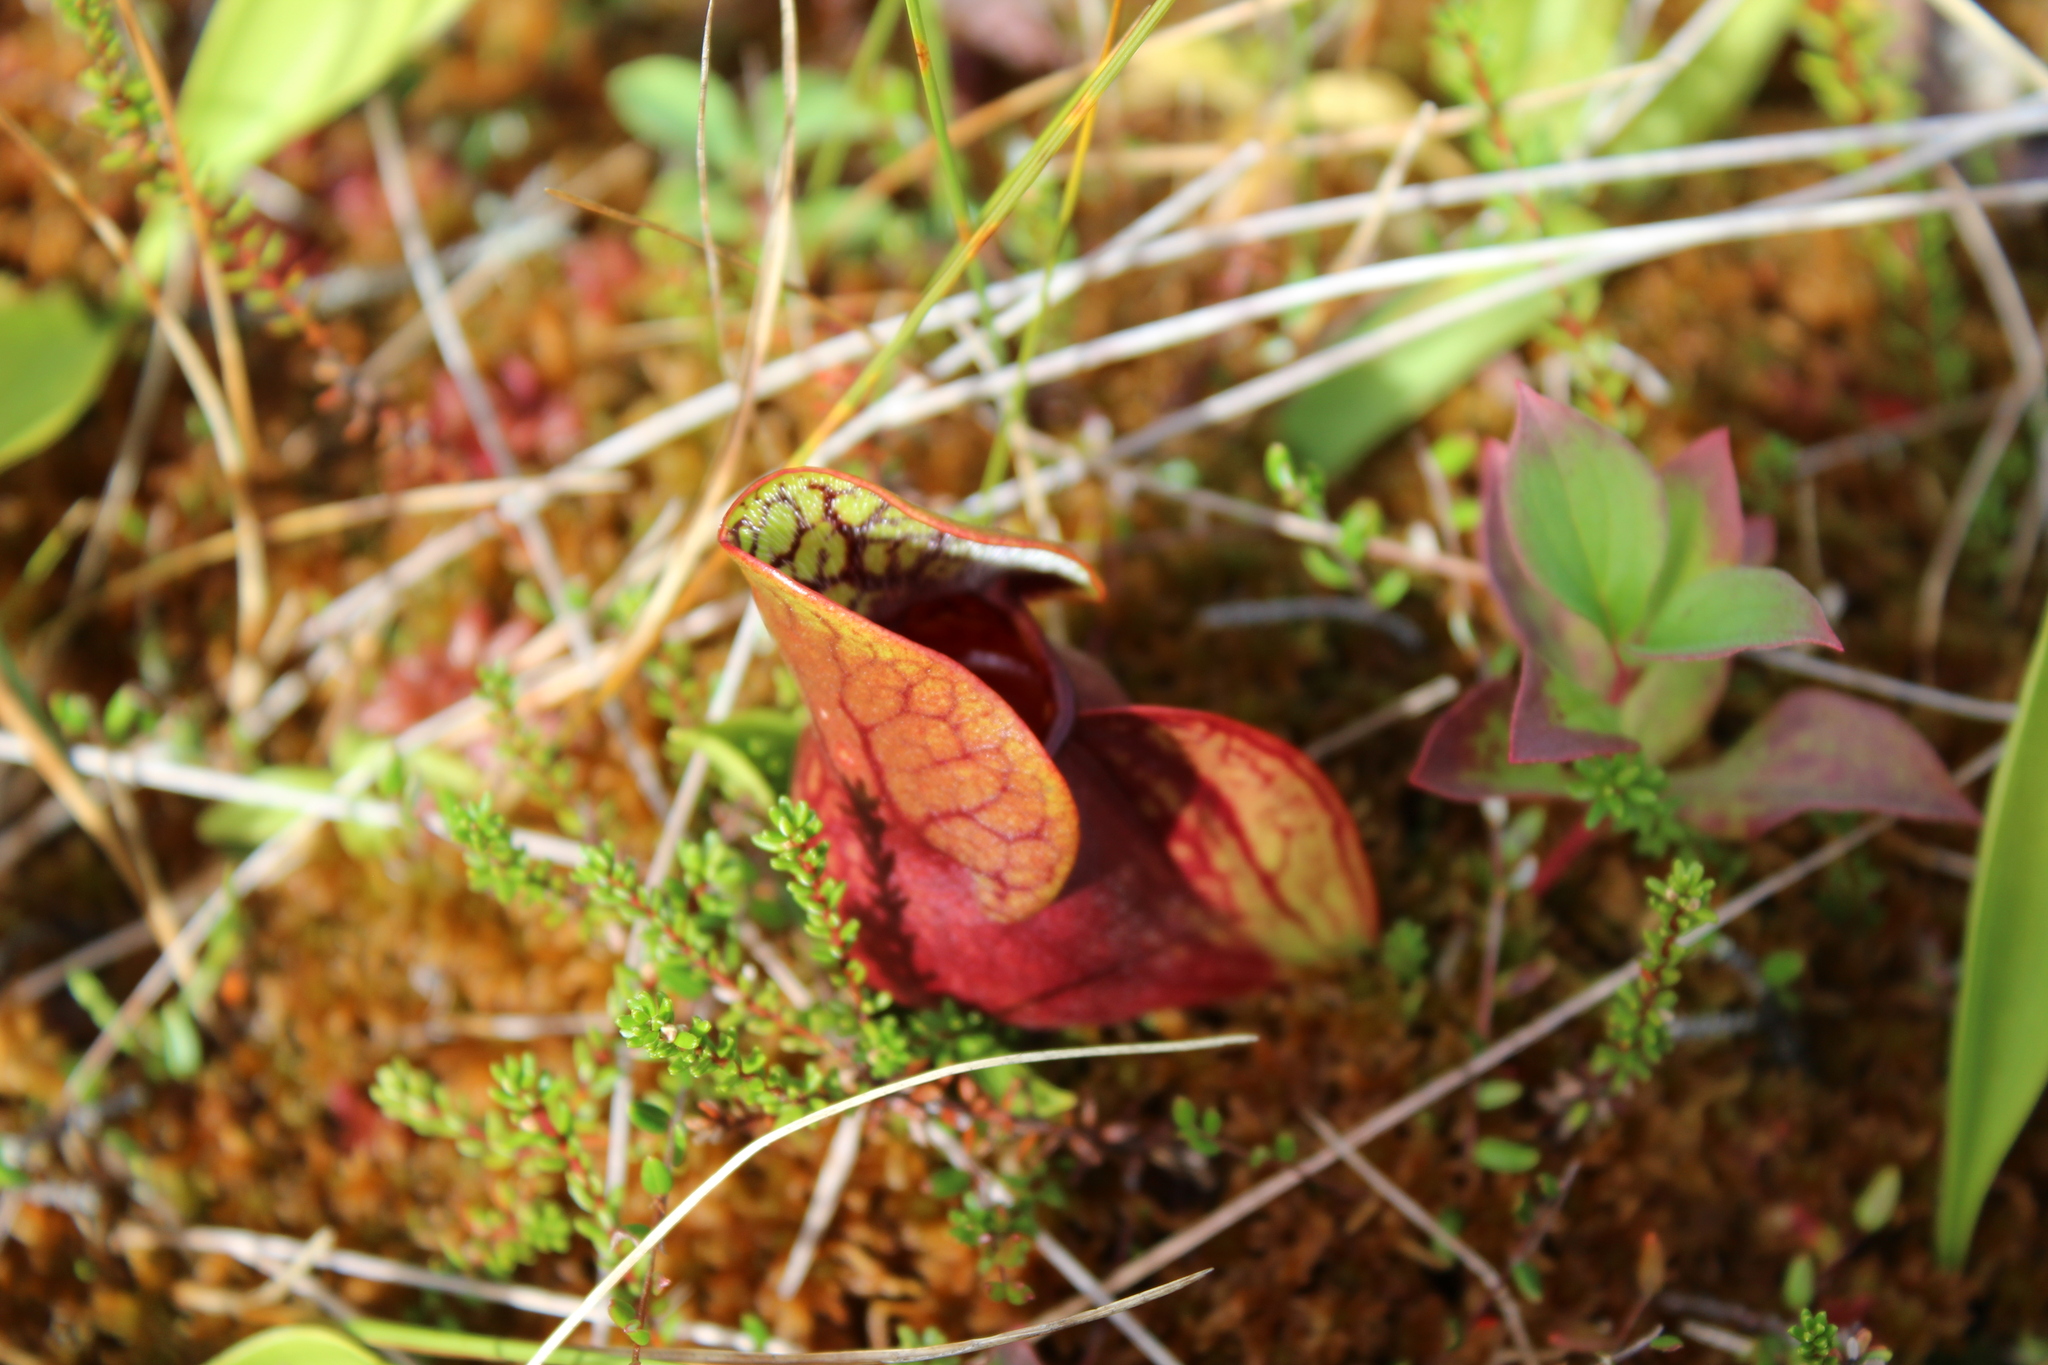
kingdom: Plantae
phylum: Tracheophyta
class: Magnoliopsida
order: Ericales
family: Sarraceniaceae
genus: Sarracenia
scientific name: Sarracenia purpurea
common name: Pitcherplant
